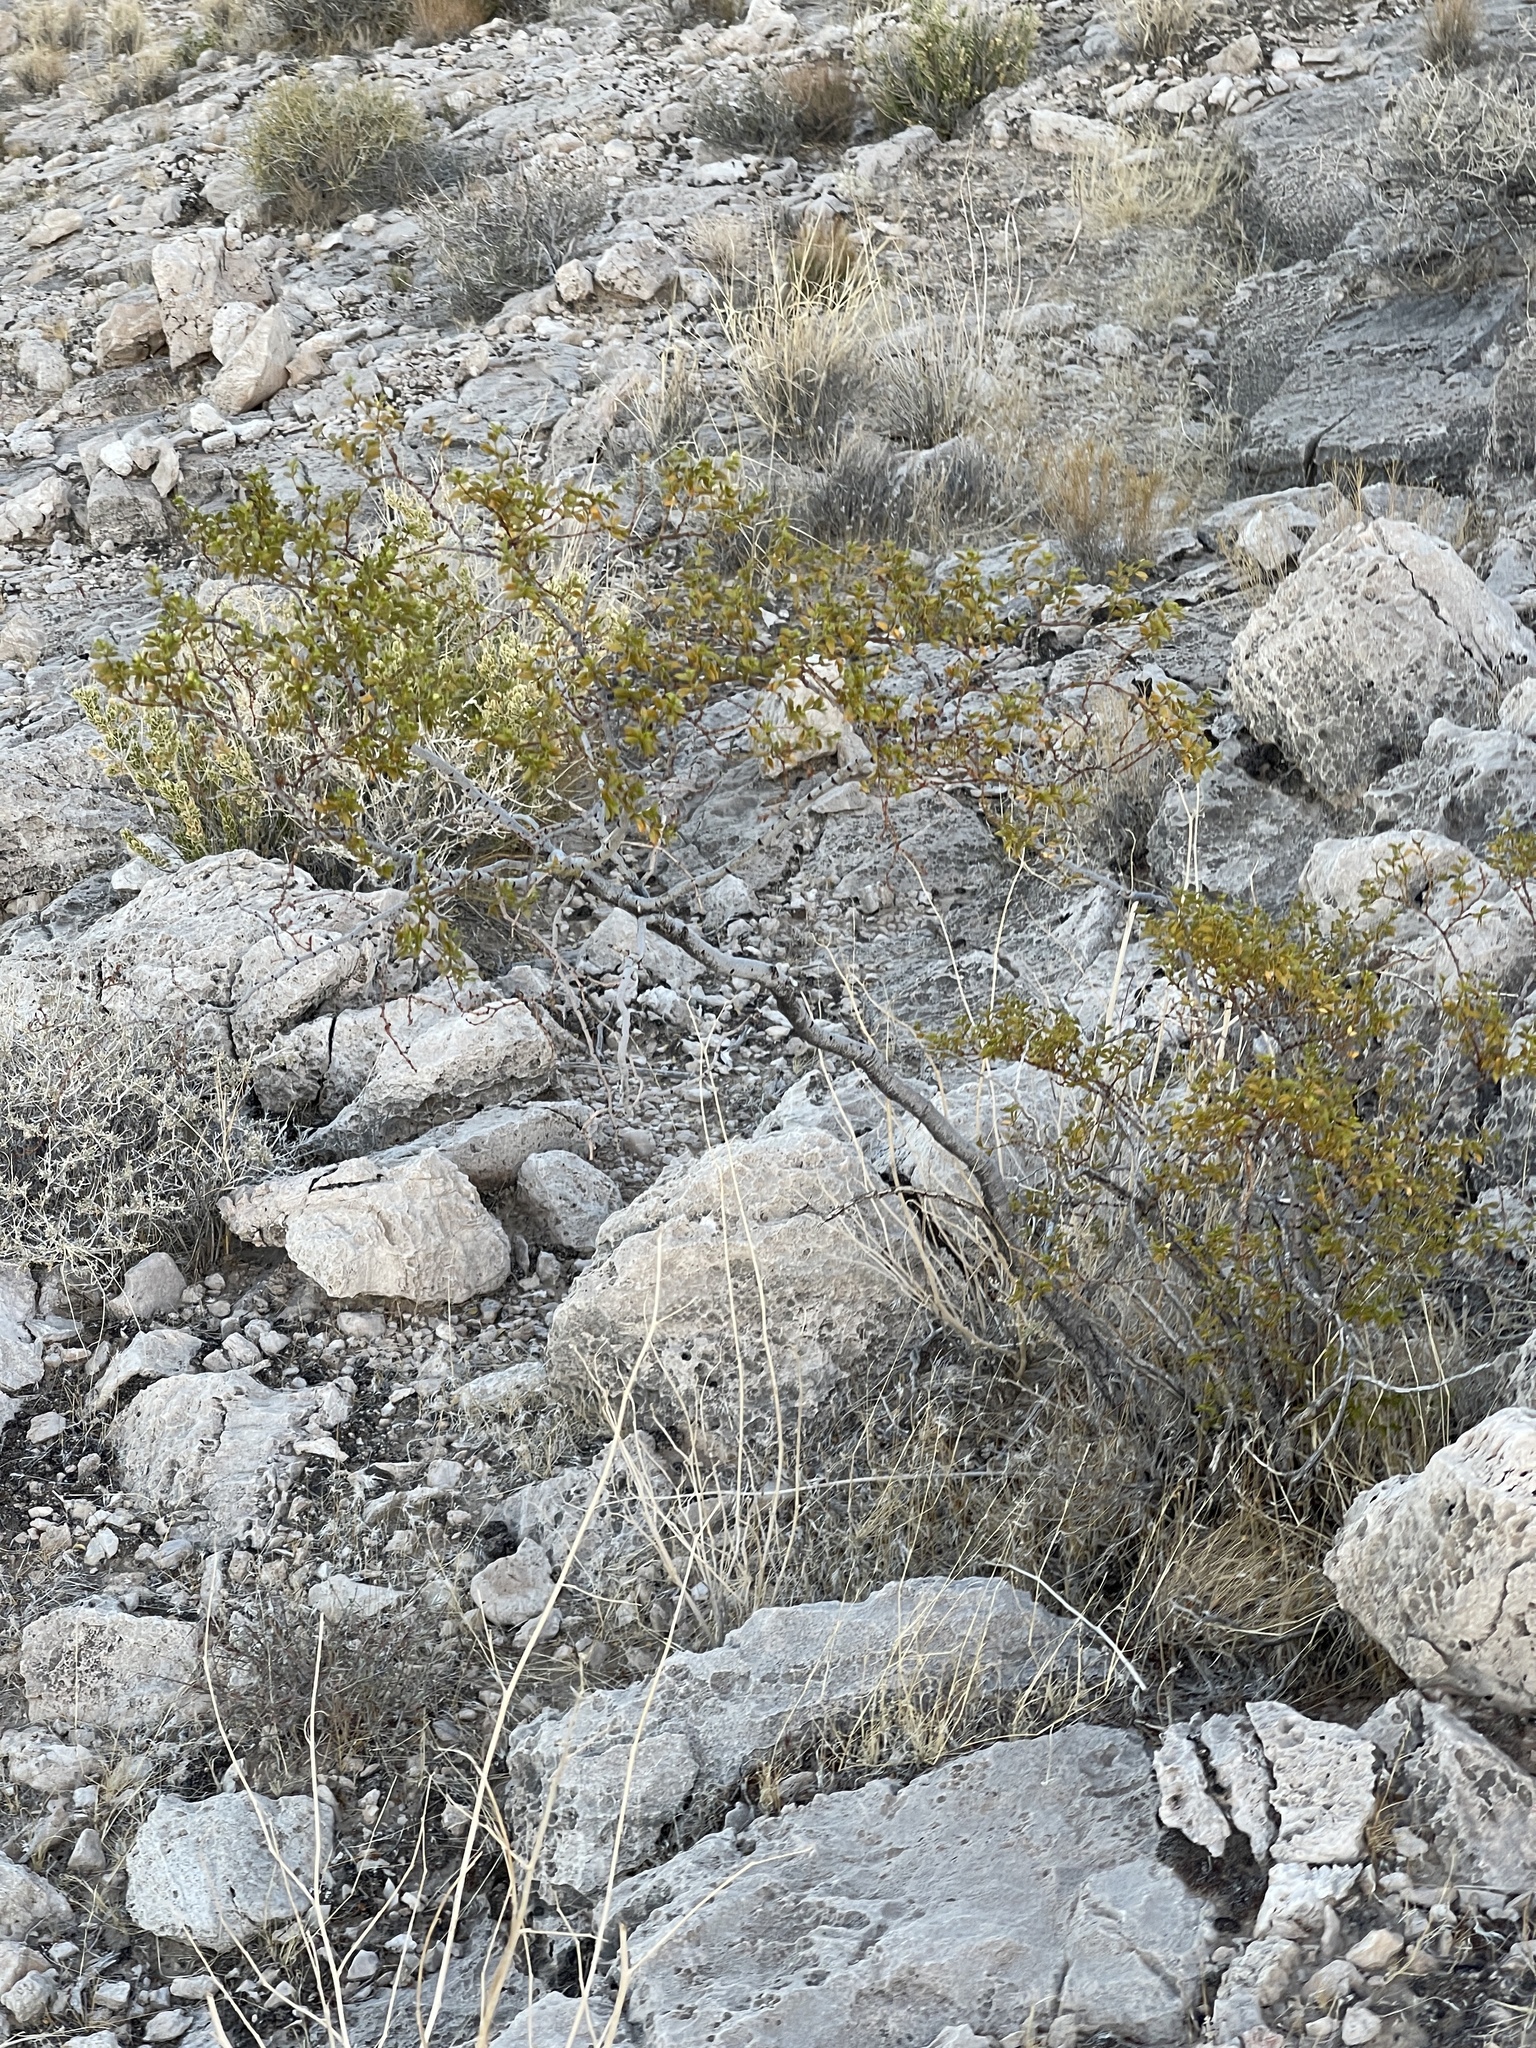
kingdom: Plantae
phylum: Tracheophyta
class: Magnoliopsida
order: Zygophyllales
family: Zygophyllaceae
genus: Larrea
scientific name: Larrea tridentata
